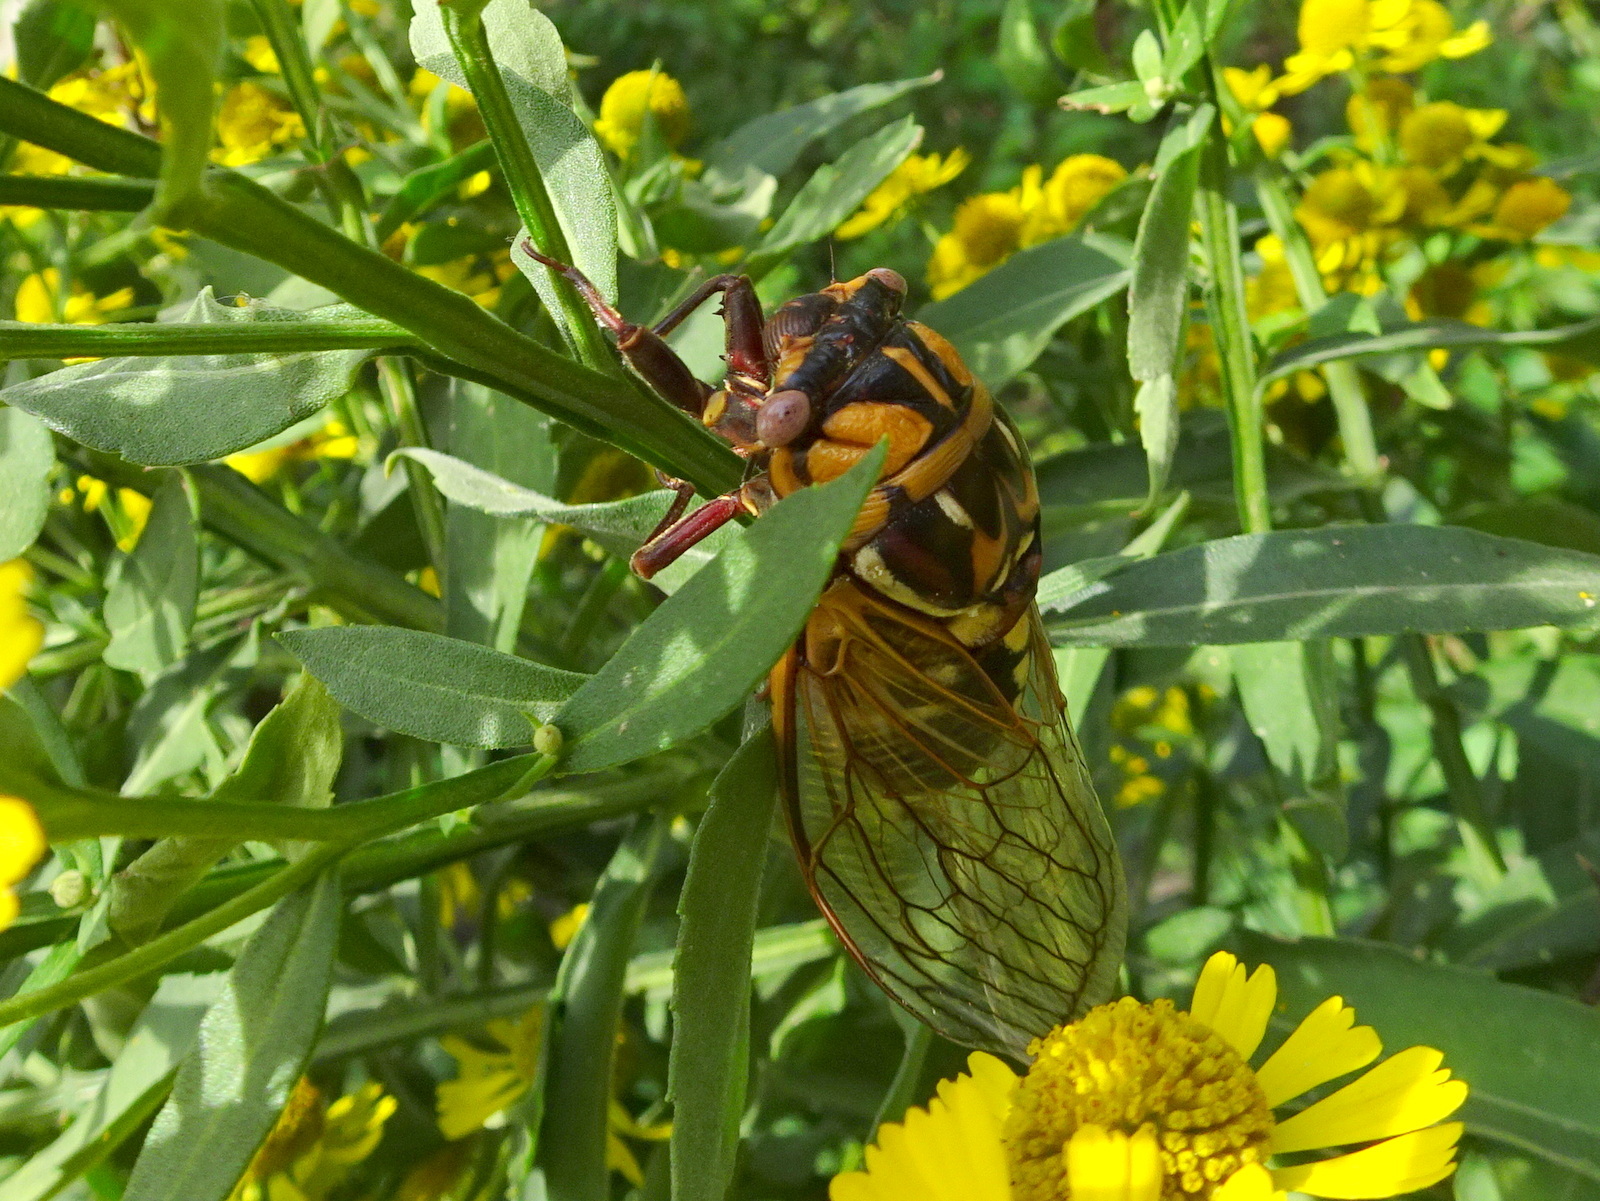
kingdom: Animalia
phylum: Arthropoda
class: Insecta
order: Hemiptera
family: Cicadidae
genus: Megatibicen
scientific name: Megatibicen dorsatus
